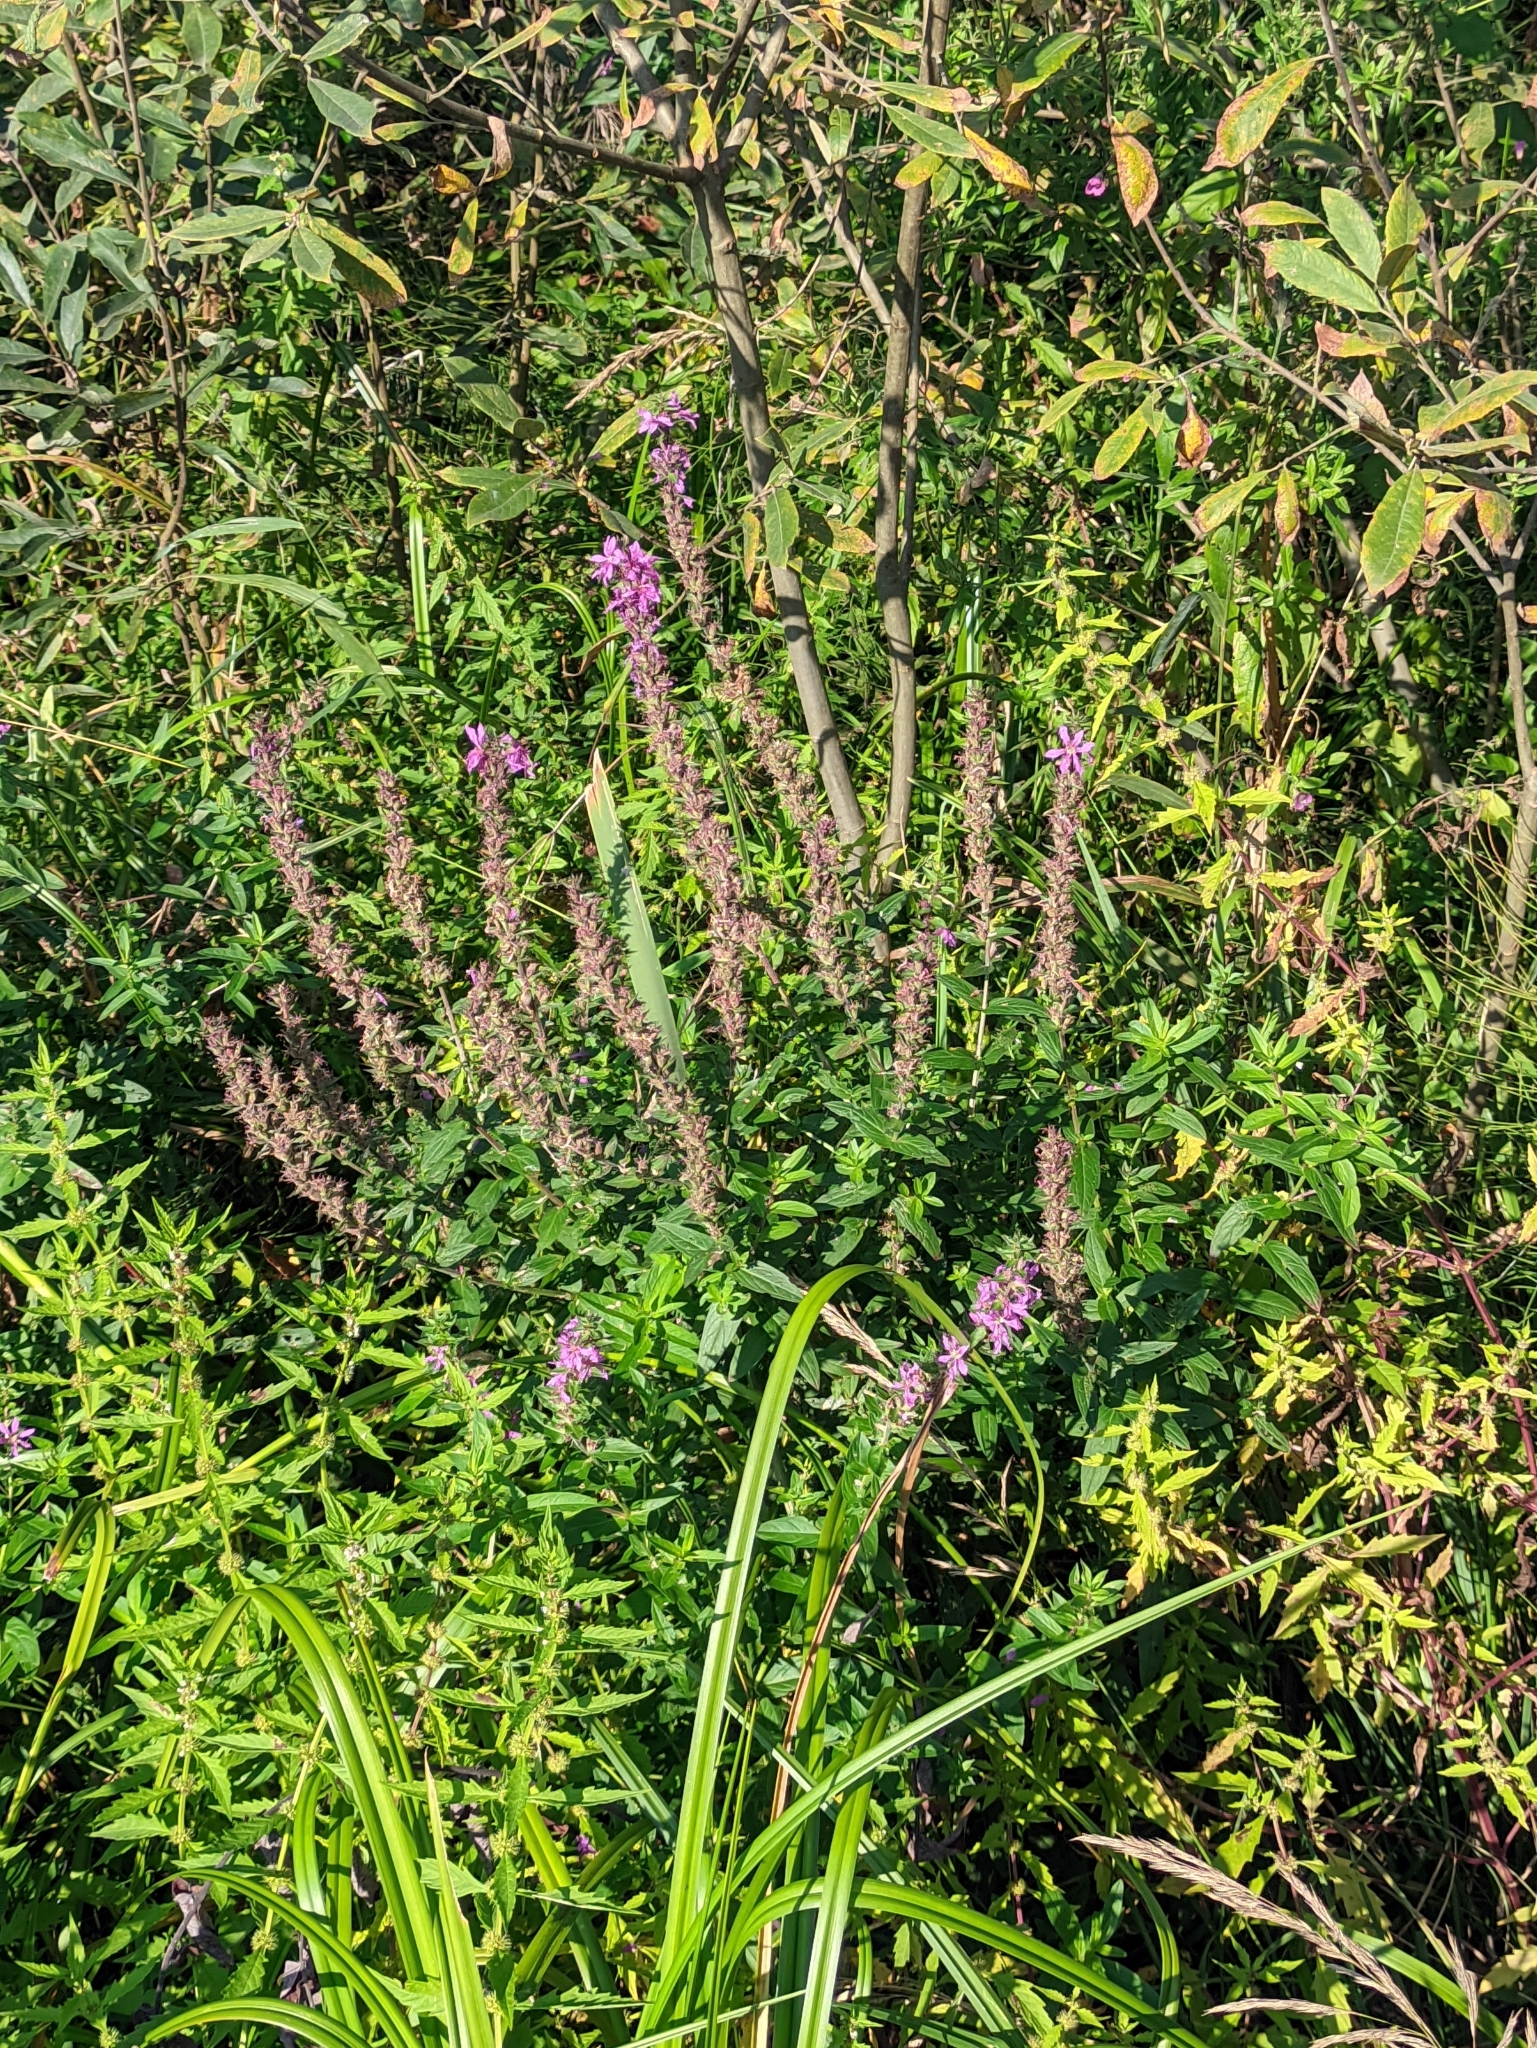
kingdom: Plantae
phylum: Tracheophyta
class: Magnoliopsida
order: Myrtales
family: Lythraceae
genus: Lythrum
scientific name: Lythrum salicaria
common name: Purple loosestrife
